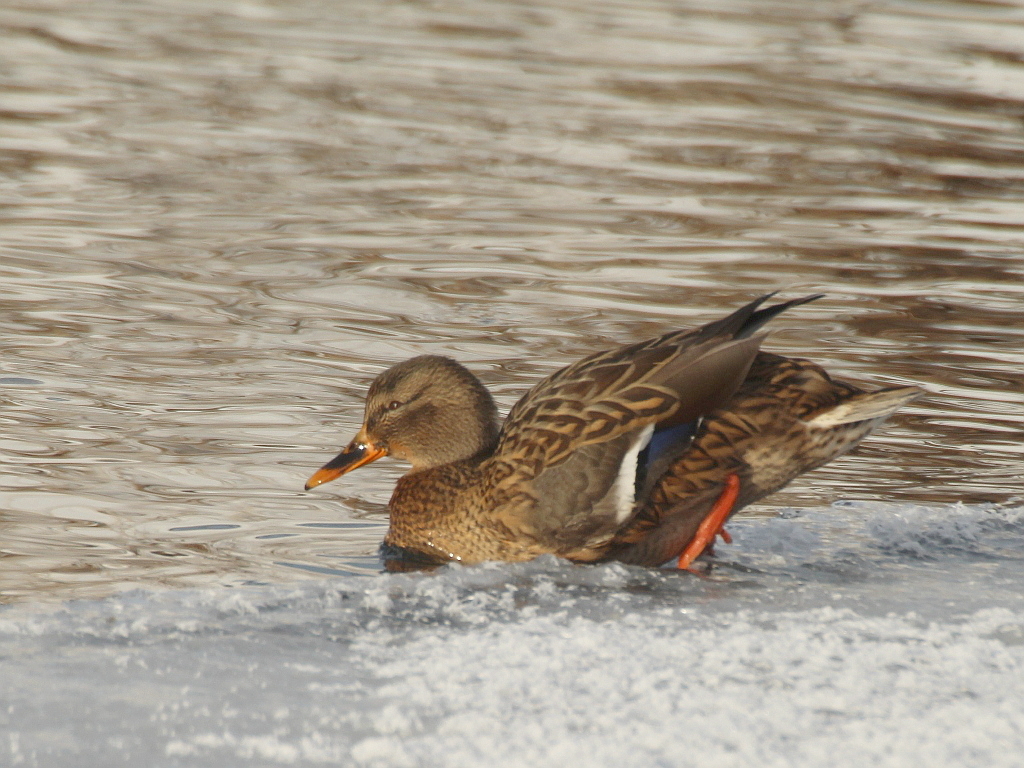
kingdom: Animalia
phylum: Chordata
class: Aves
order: Anseriformes
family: Anatidae
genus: Anas
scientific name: Anas platyrhynchos
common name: Mallard
